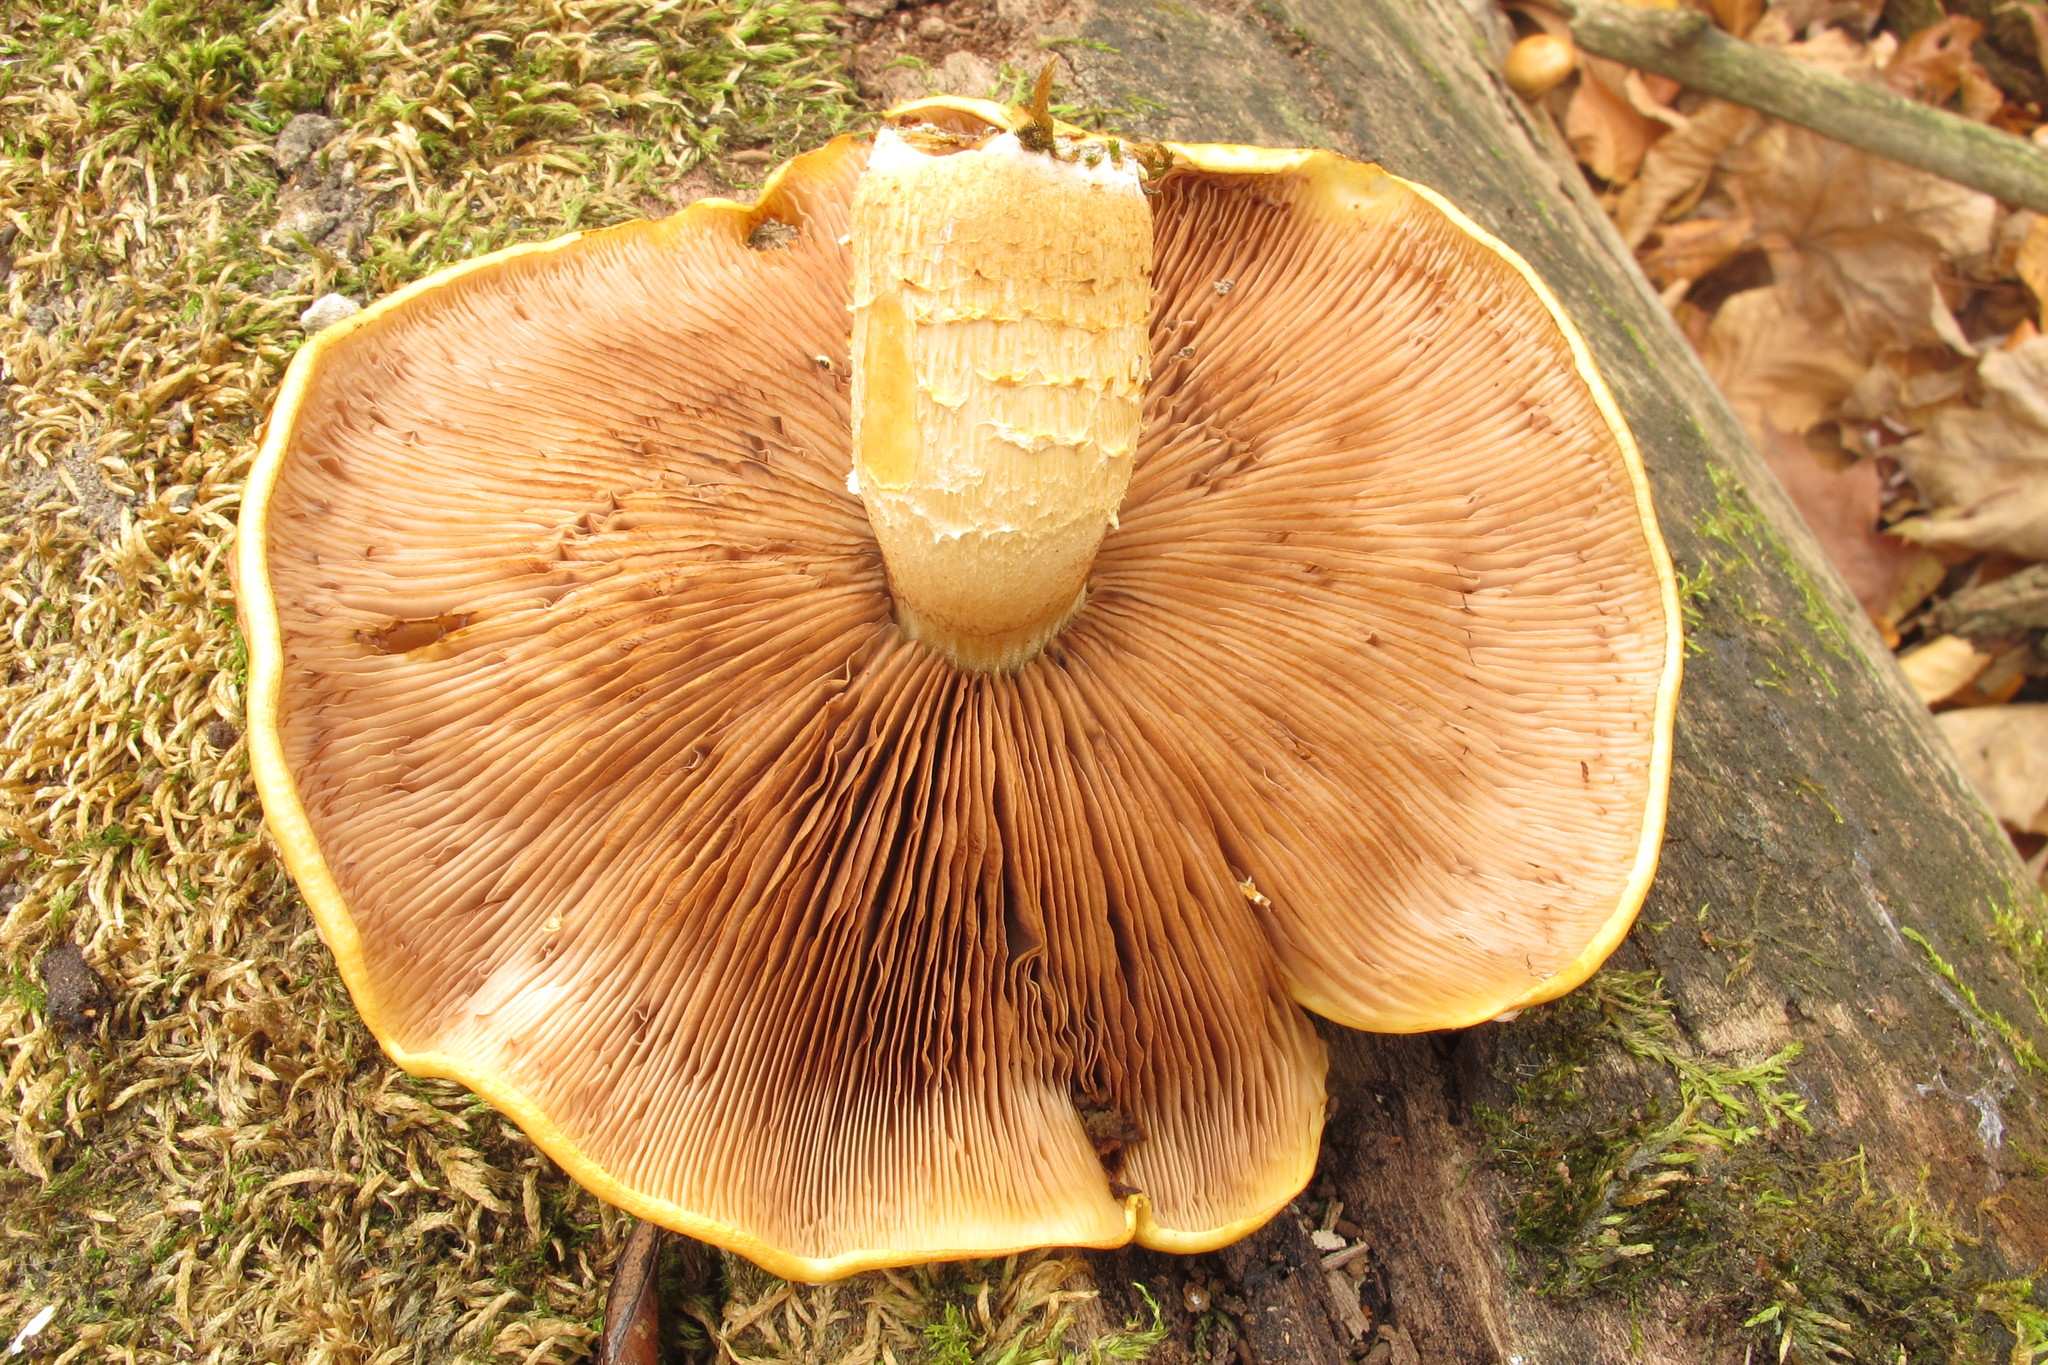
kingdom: Fungi
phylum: Basidiomycota
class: Agaricomycetes
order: Agaricales
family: Strophariaceae
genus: Pholiota
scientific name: Pholiota aurivella
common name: Golden scalycap
